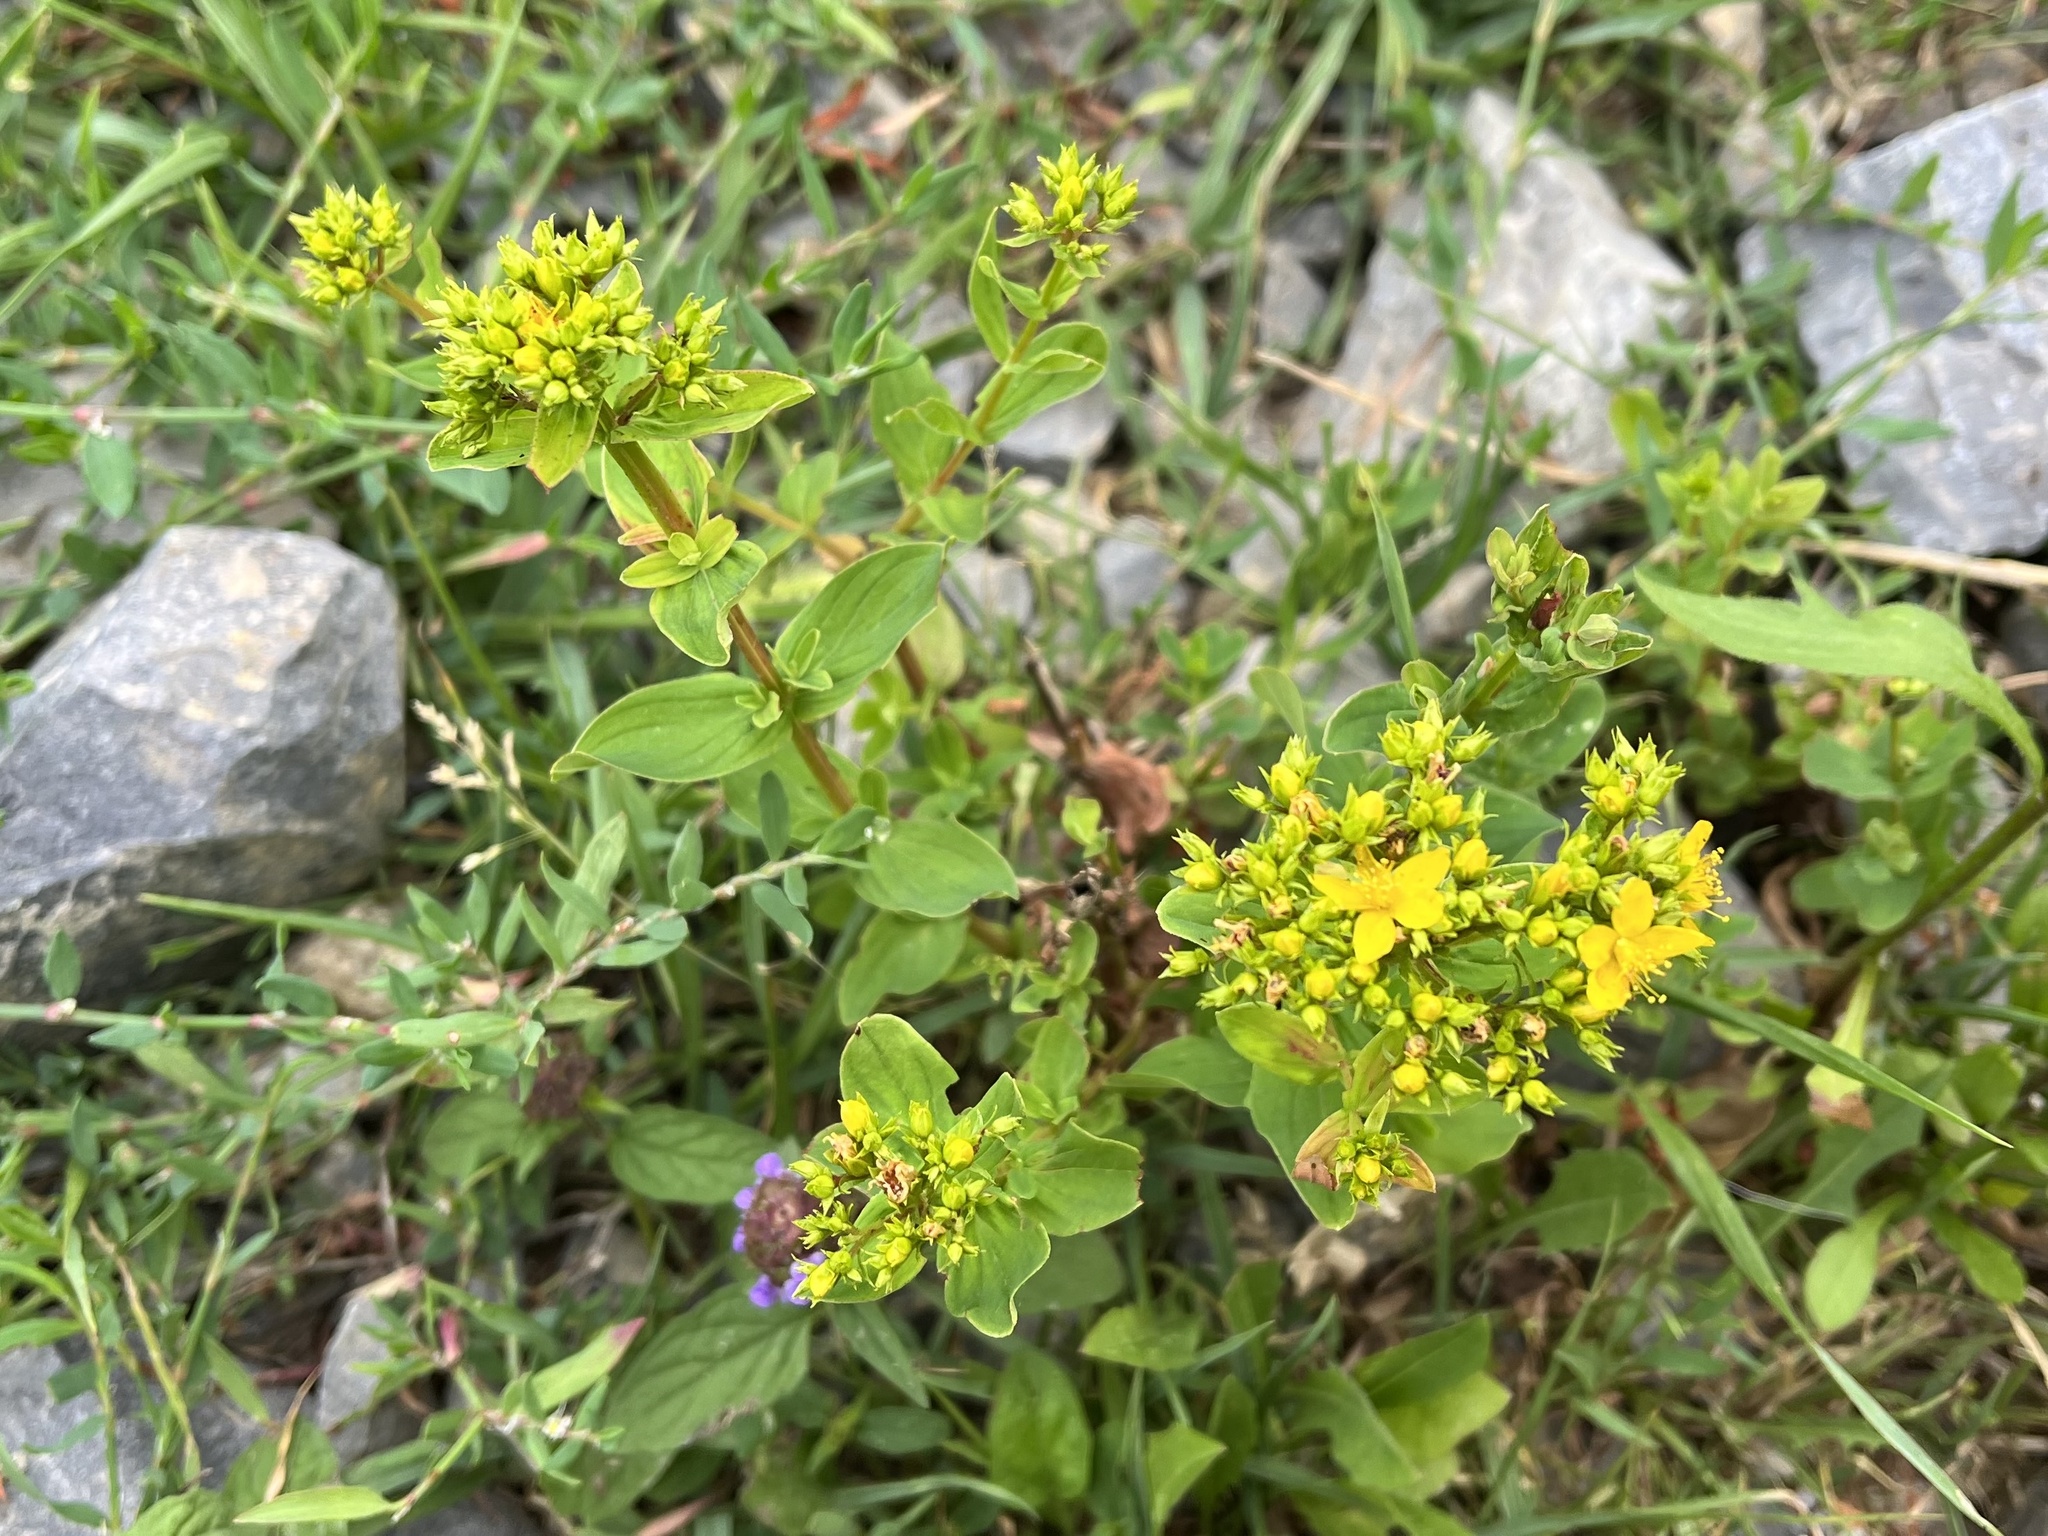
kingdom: Plantae
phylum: Tracheophyta
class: Magnoliopsida
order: Malpighiales
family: Hypericaceae
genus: Hypericum
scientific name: Hypericum tetrapterum
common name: Square-stalked st. john's-wort
